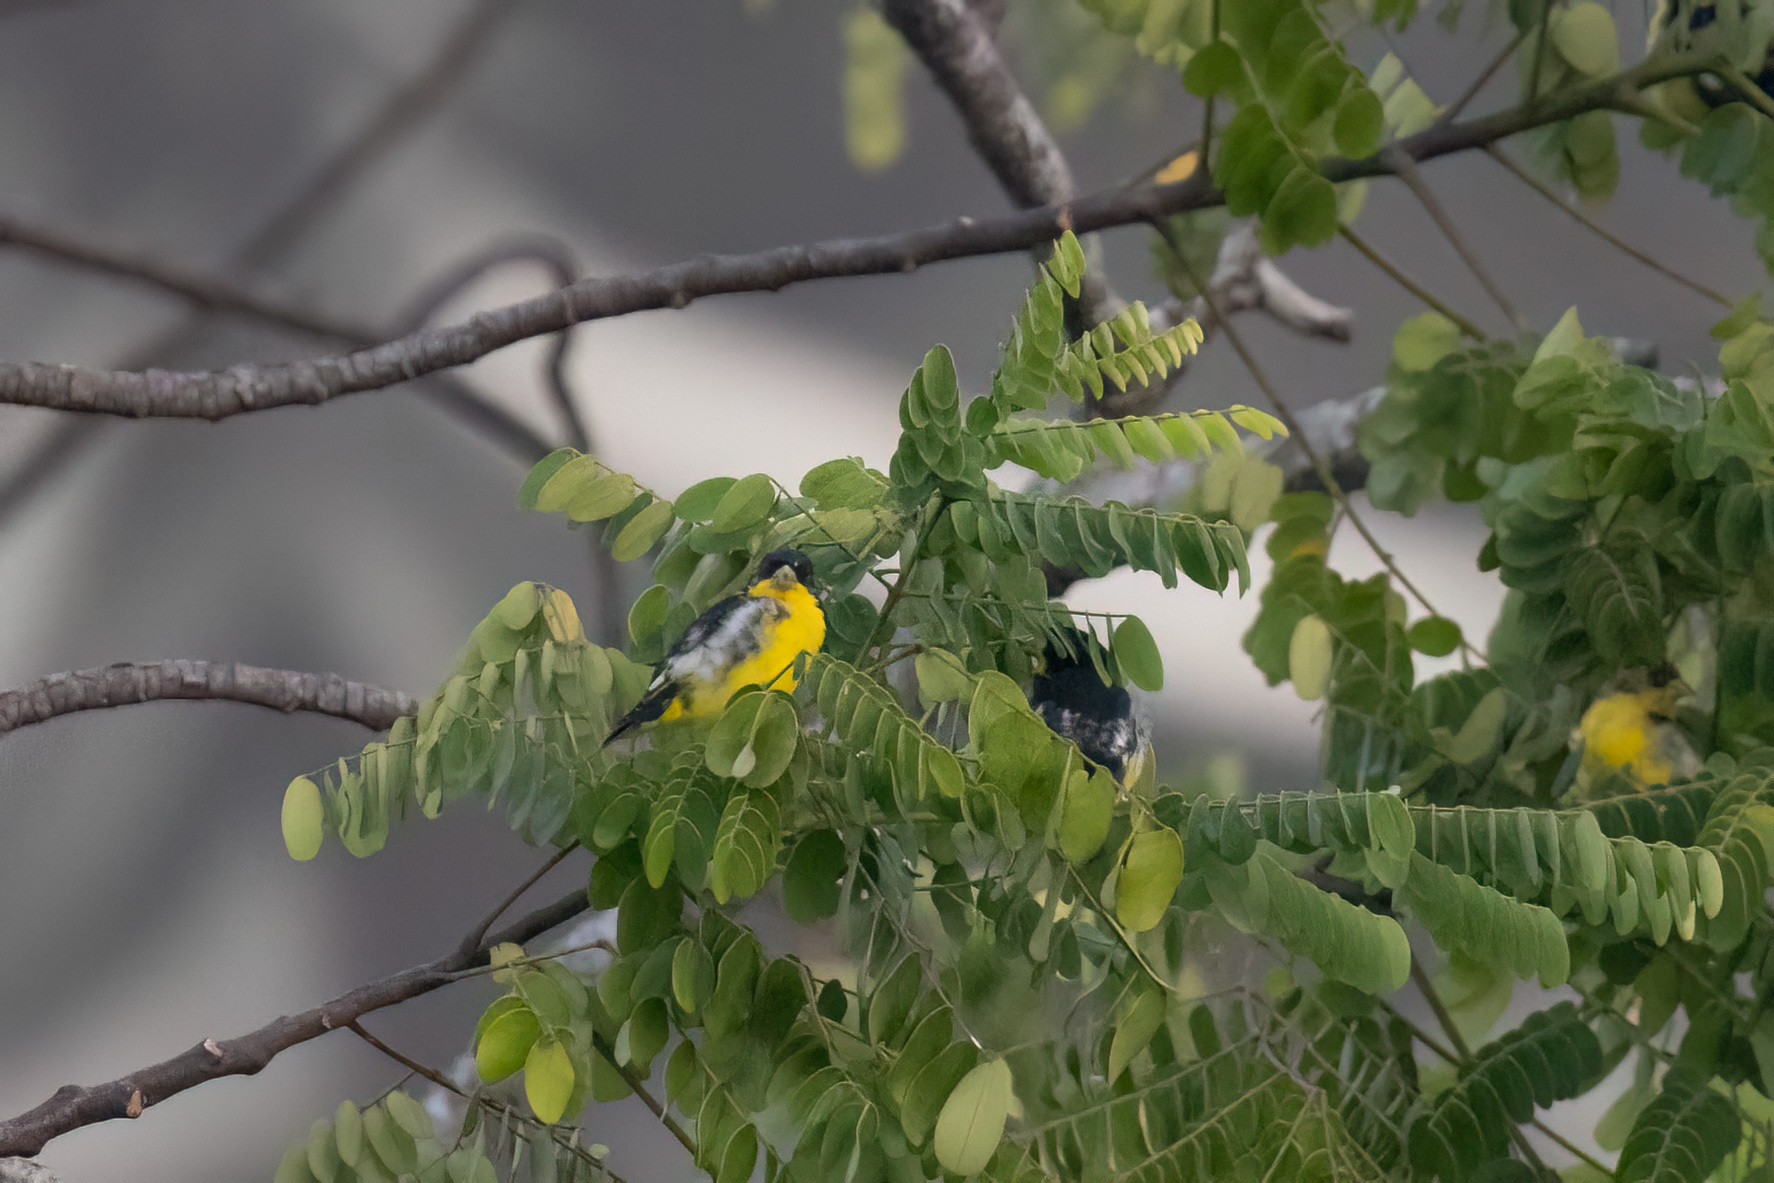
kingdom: Animalia
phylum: Chordata
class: Aves
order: Passeriformes
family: Fringillidae
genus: Spinus
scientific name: Spinus psaltria
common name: Lesser goldfinch
